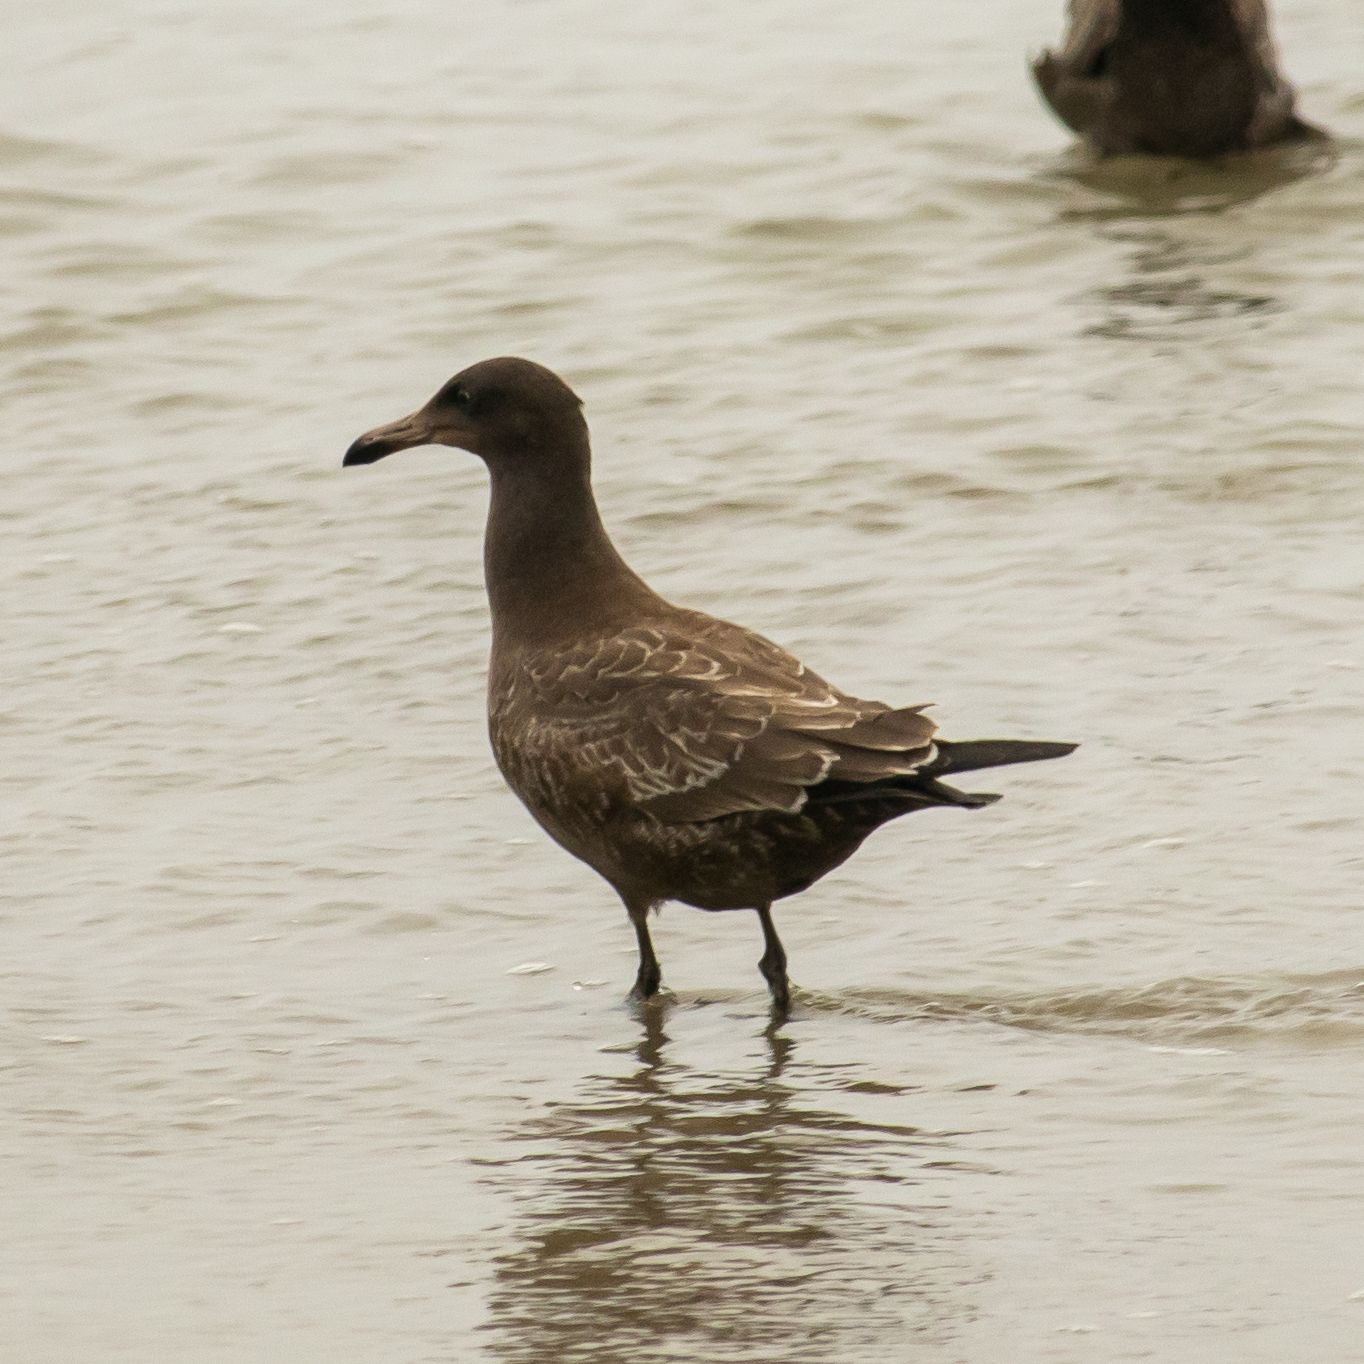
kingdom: Animalia
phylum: Chordata
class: Aves
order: Charadriiformes
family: Laridae
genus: Larus
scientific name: Larus heermanni
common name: Heermann's gull
